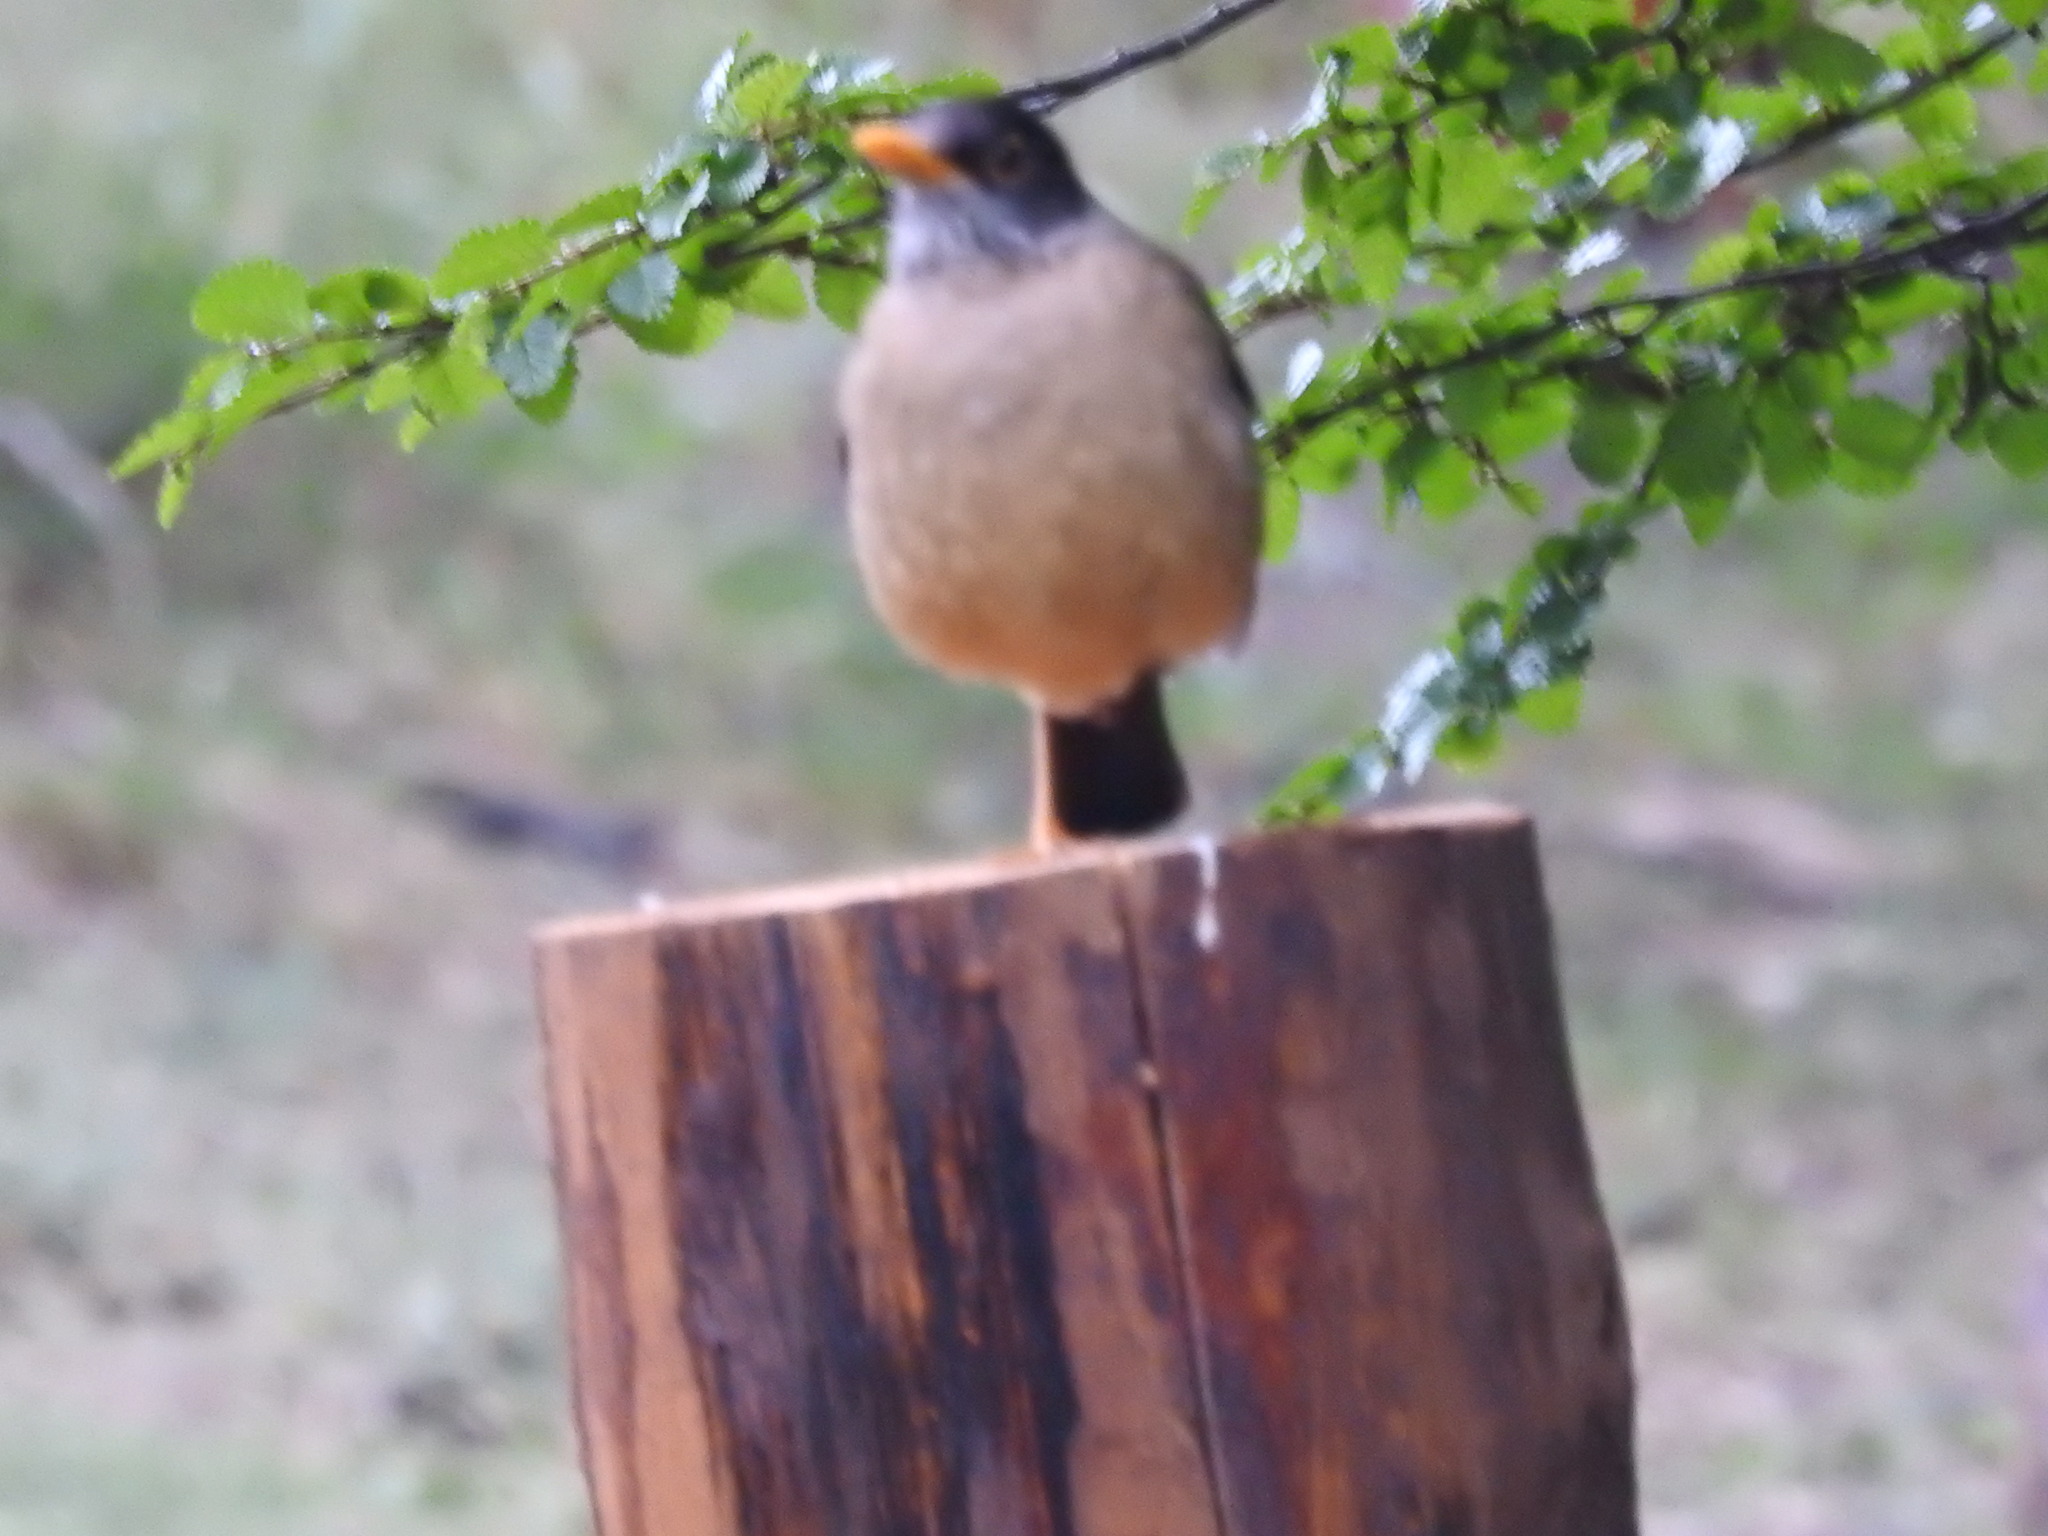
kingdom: Animalia
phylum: Chordata
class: Aves
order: Passeriformes
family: Turdidae
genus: Turdus
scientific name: Turdus falcklandii
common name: Austral thrush
